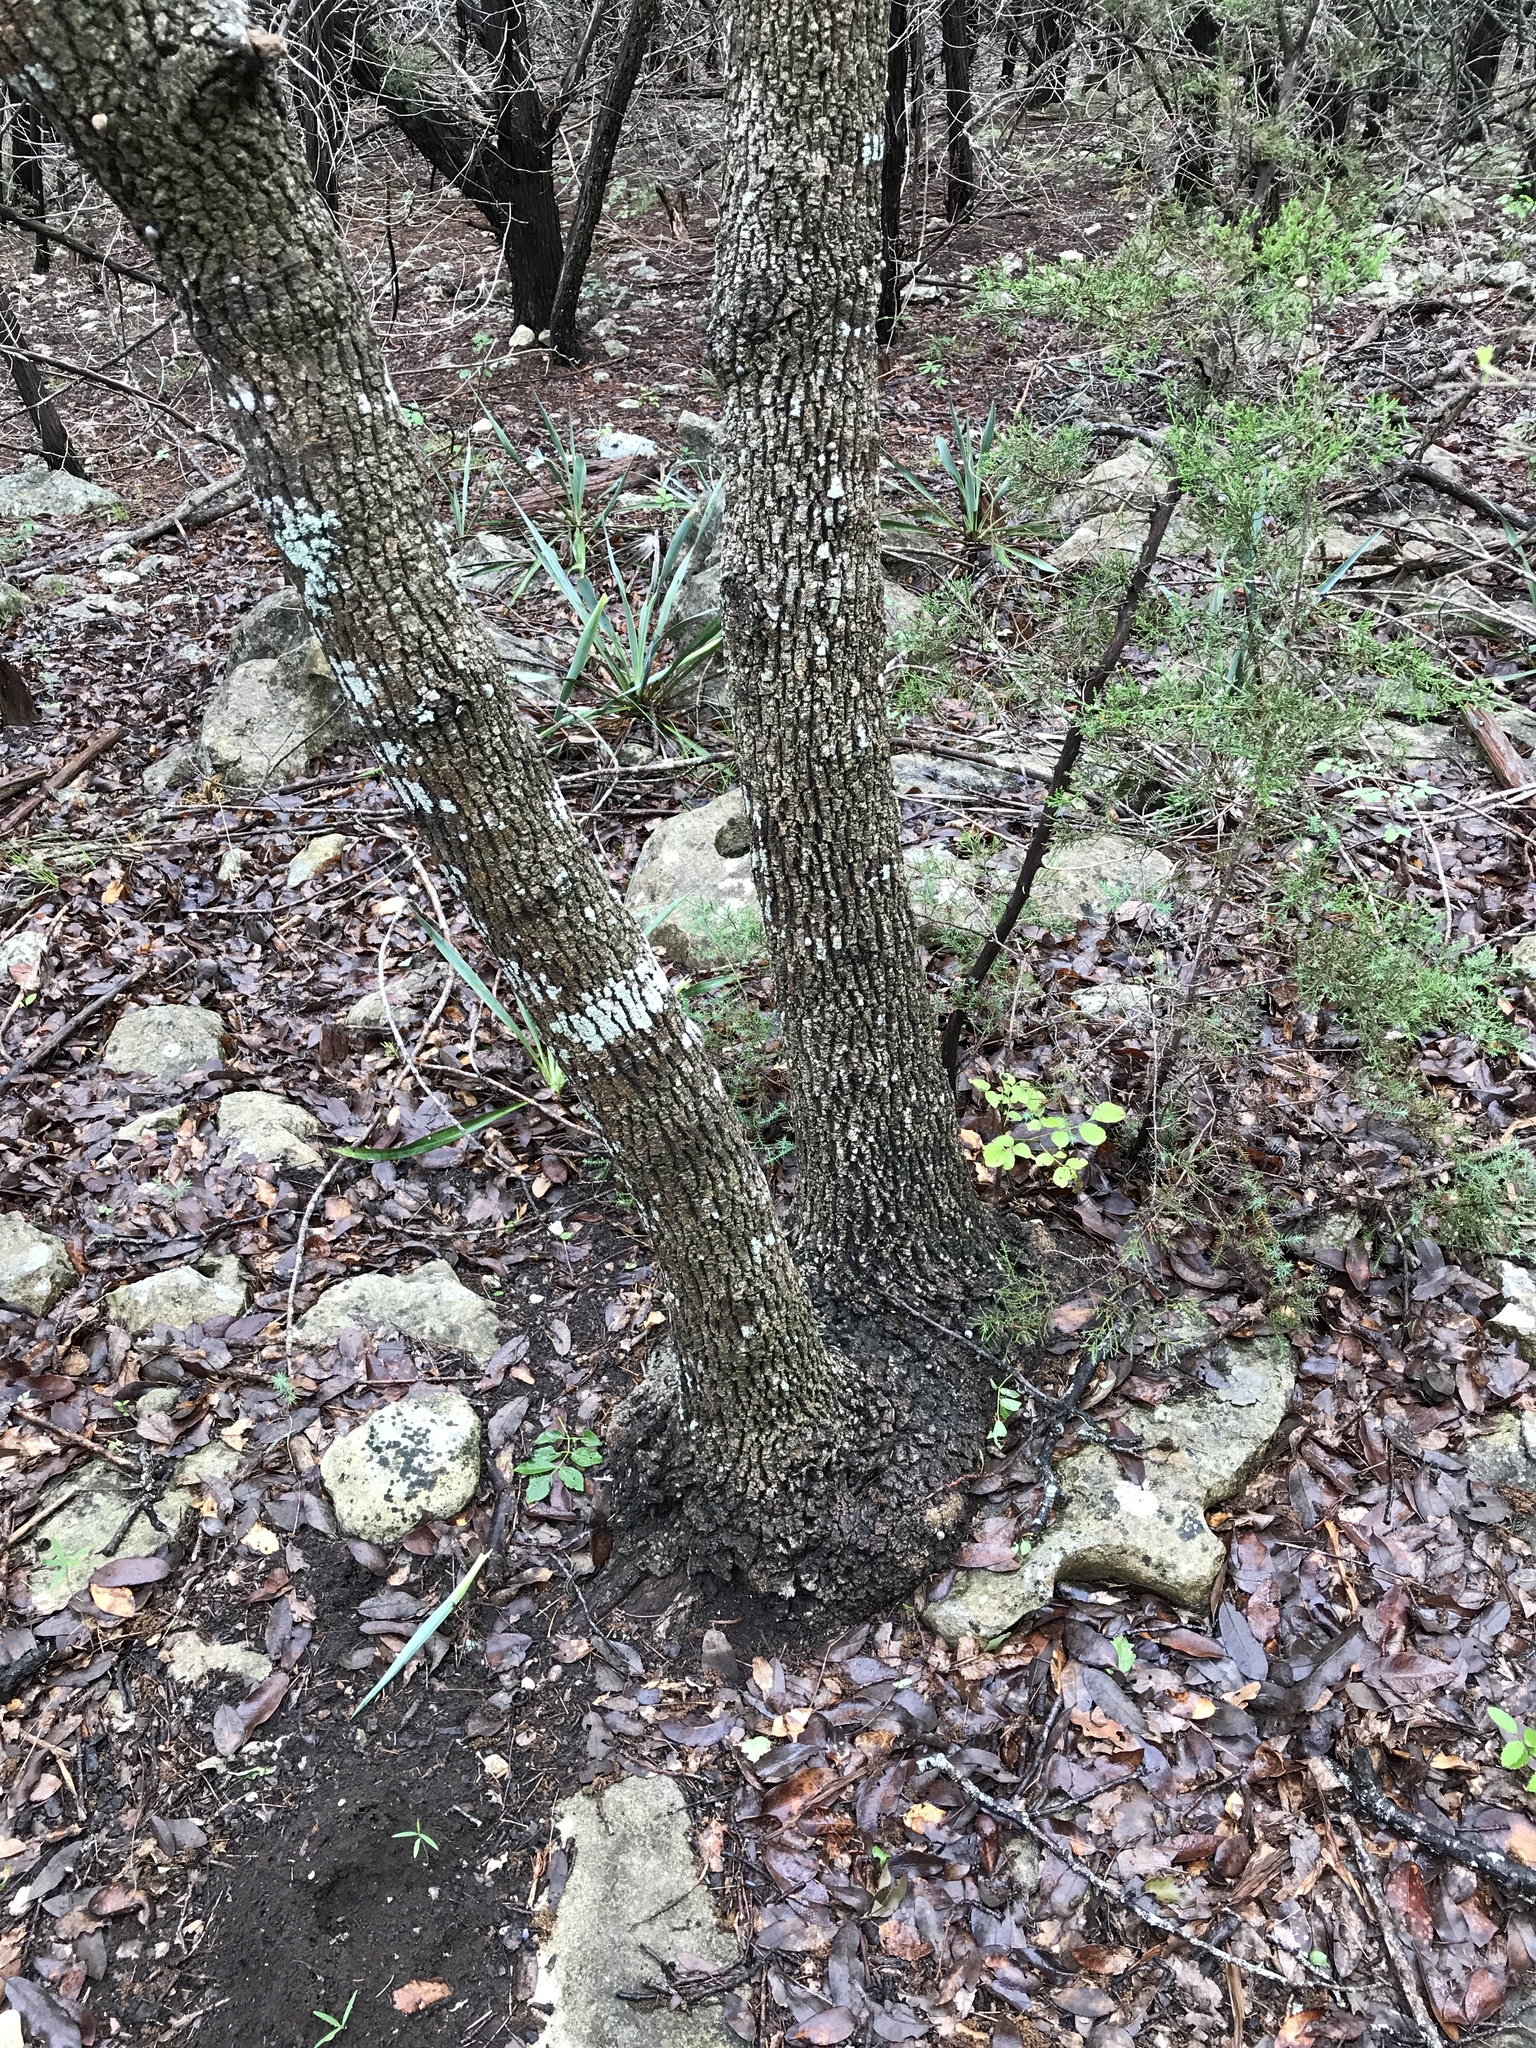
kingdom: Plantae
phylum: Tracheophyta
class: Magnoliopsida
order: Lamiales
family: Oleaceae
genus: Fraxinus
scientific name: Fraxinus albicans
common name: Texas ash
